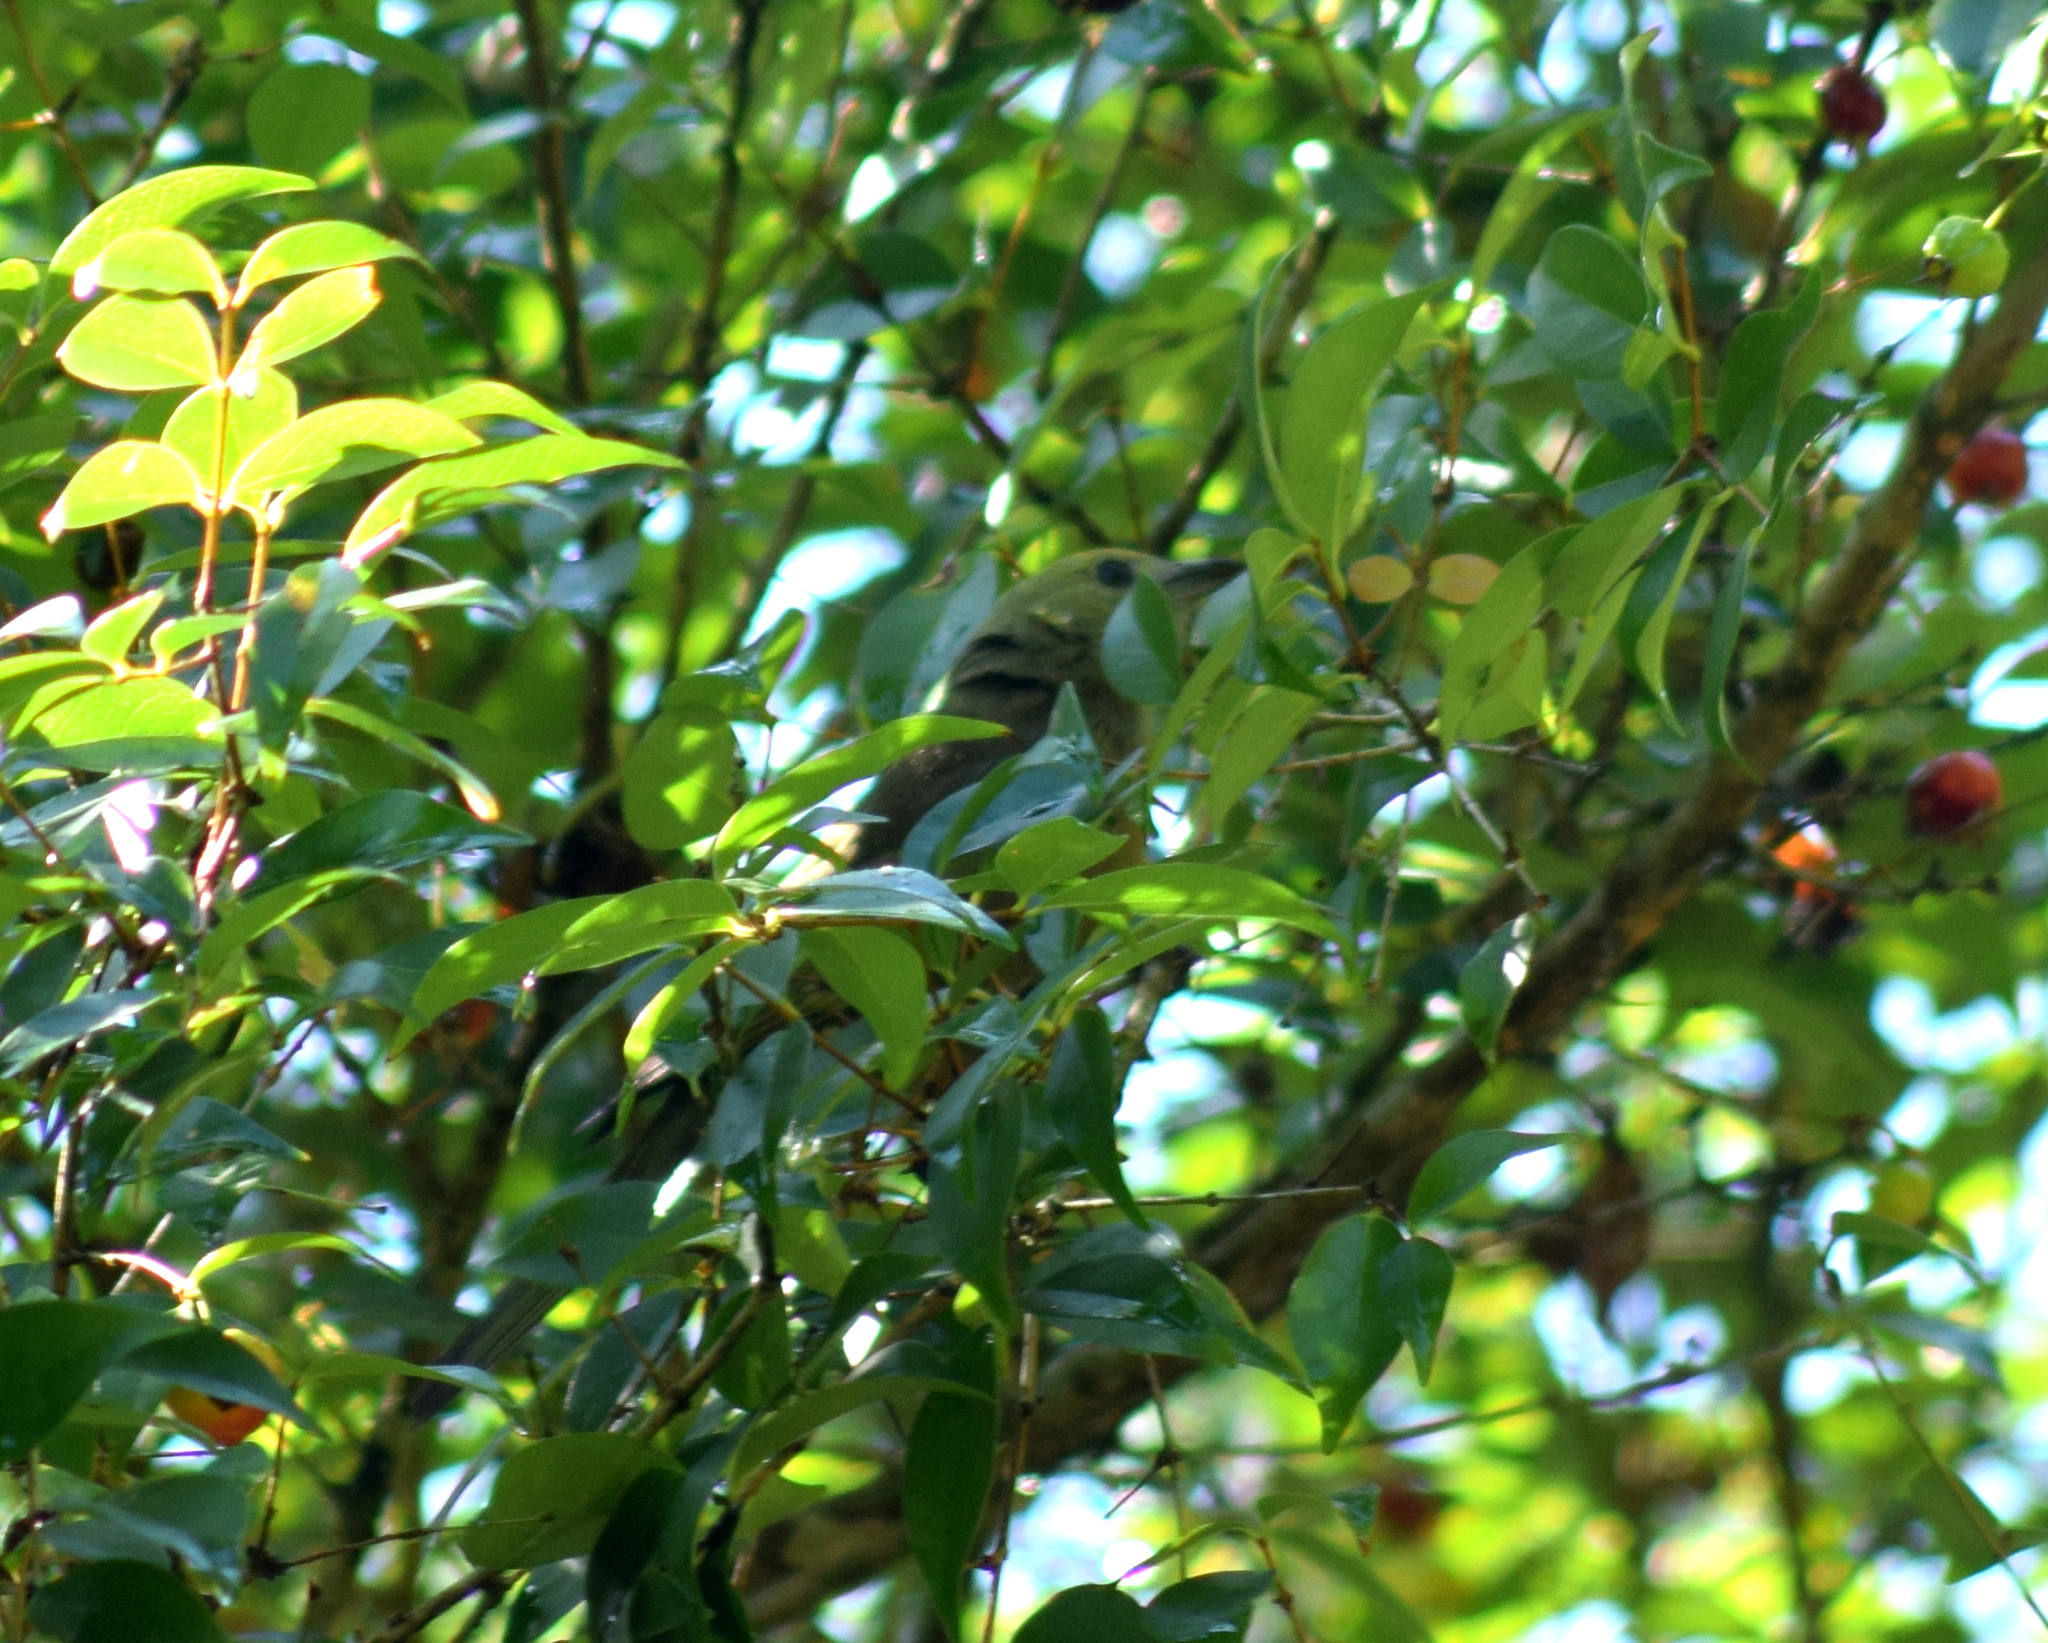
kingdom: Animalia
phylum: Chordata
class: Aves
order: Passeriformes
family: Thraupidae
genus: Thraupis
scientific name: Thraupis palmarum
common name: Palm tanager
